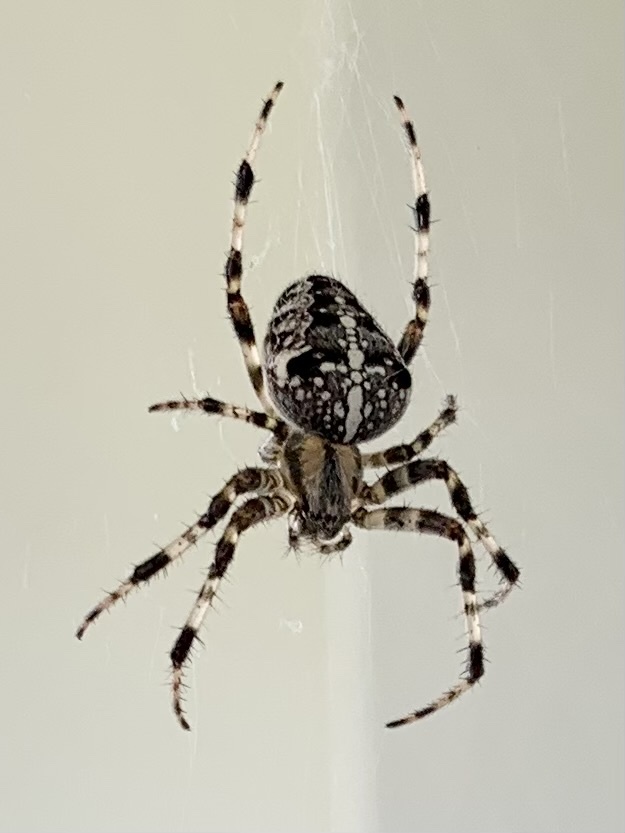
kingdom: Animalia
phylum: Arthropoda
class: Arachnida
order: Araneae
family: Araneidae
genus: Araneus
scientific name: Araneus diadematus
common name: Cross orbweaver
